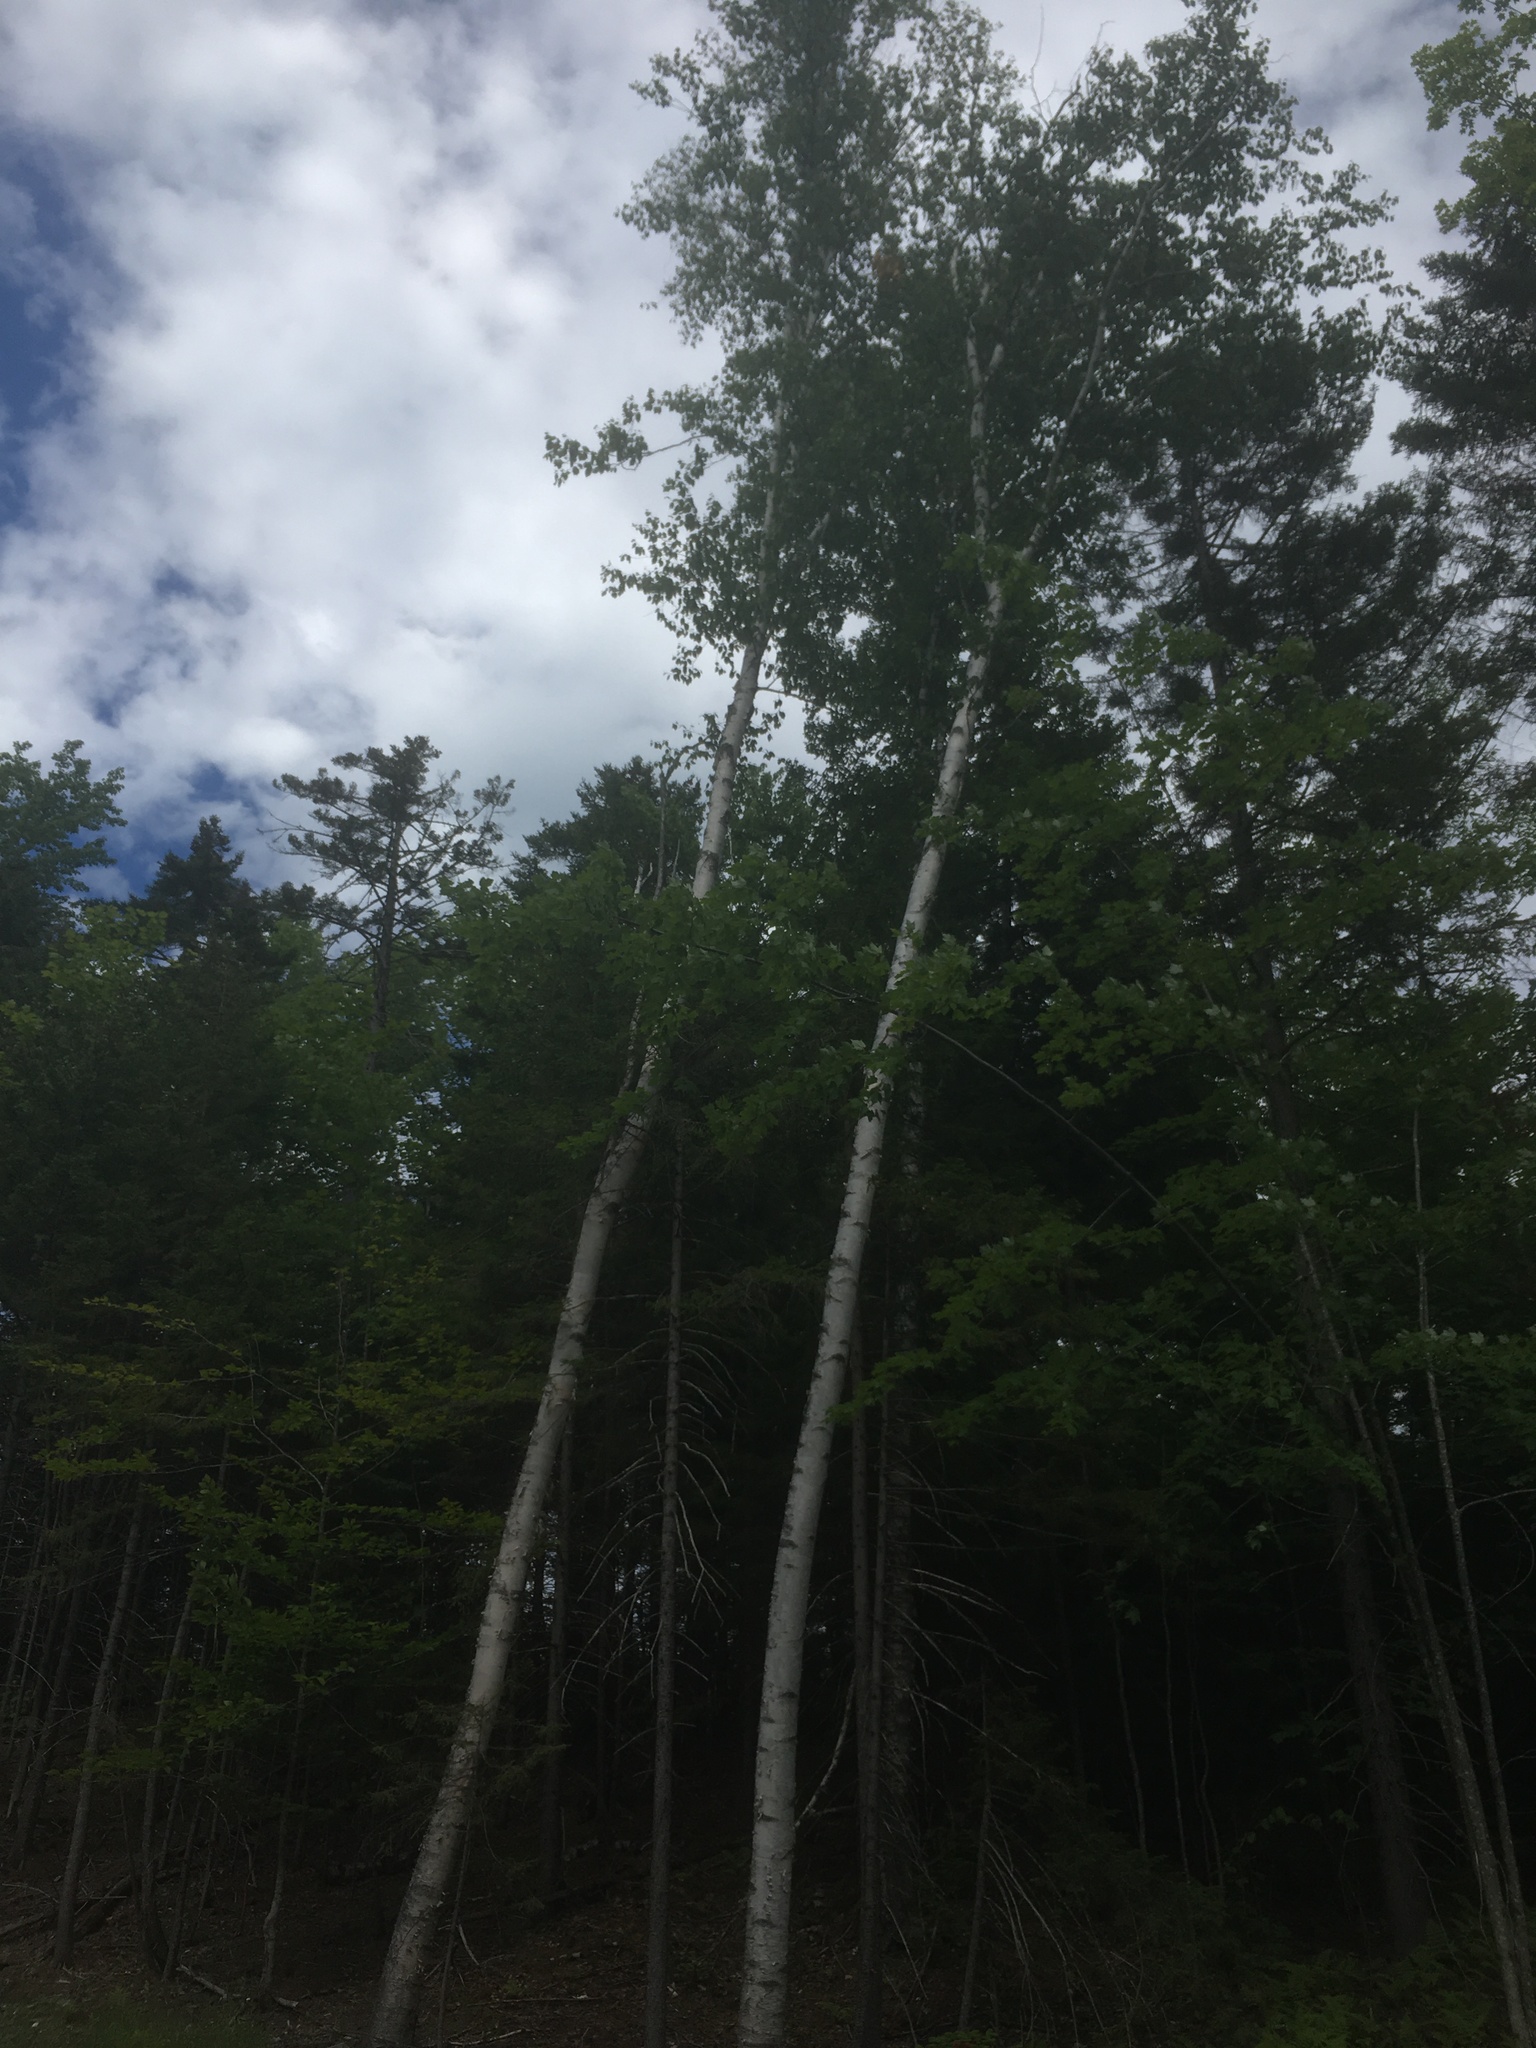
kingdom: Plantae
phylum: Tracheophyta
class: Magnoliopsida
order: Fagales
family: Betulaceae
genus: Betula
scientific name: Betula papyrifera
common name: Paper birch
